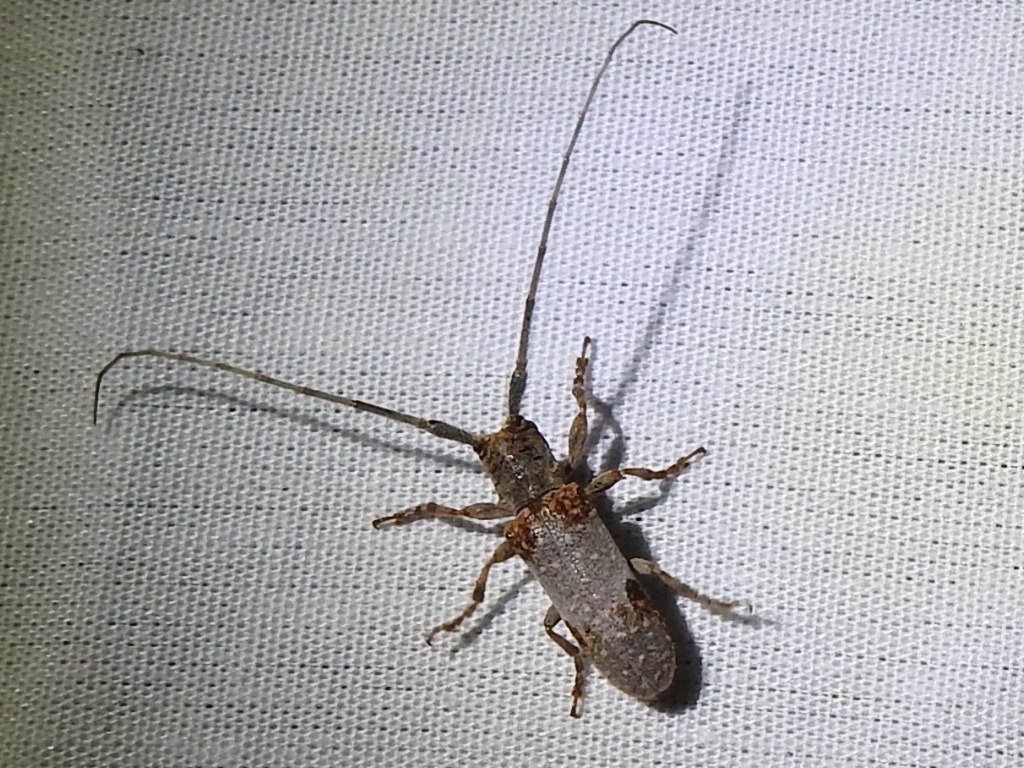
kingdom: Animalia
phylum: Arthropoda
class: Insecta
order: Coleoptera
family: Cerambycidae
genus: Oncideres
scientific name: Oncideres quercus
